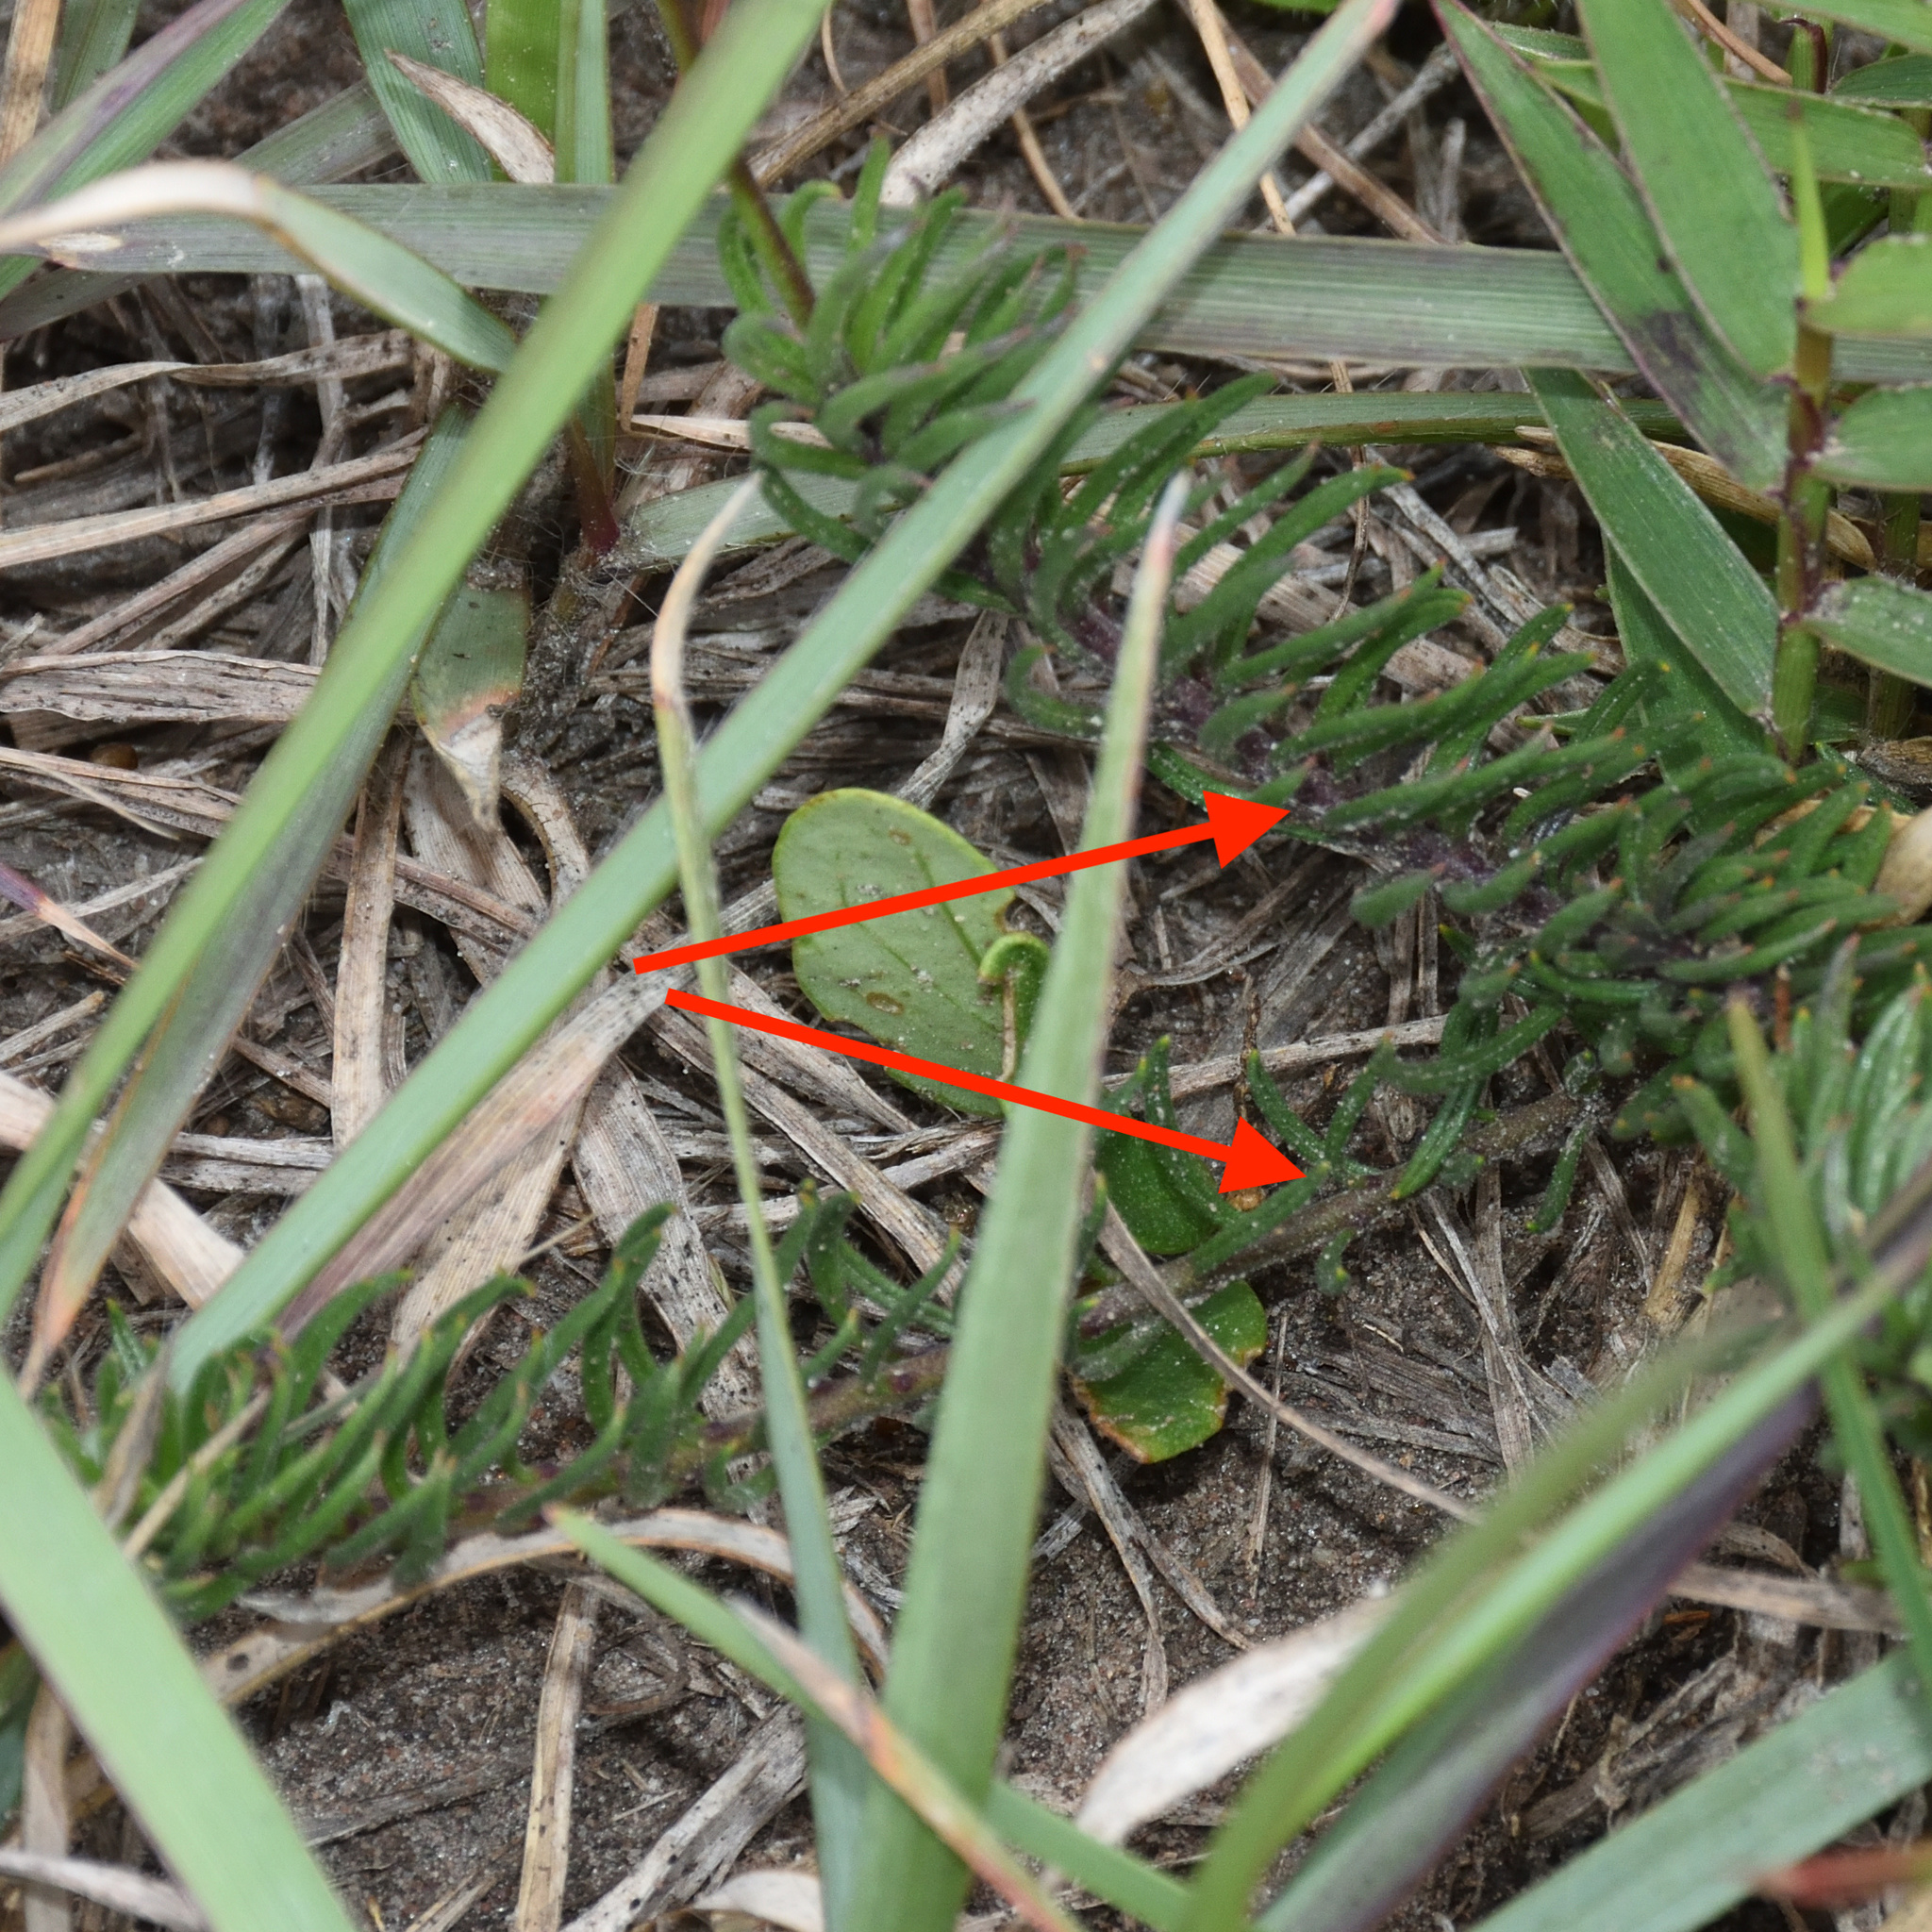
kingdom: Plantae
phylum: Tracheophyta
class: Magnoliopsida
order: Brassicales
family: Brassicaceae
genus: Heliophila
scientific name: Heliophila subulata
